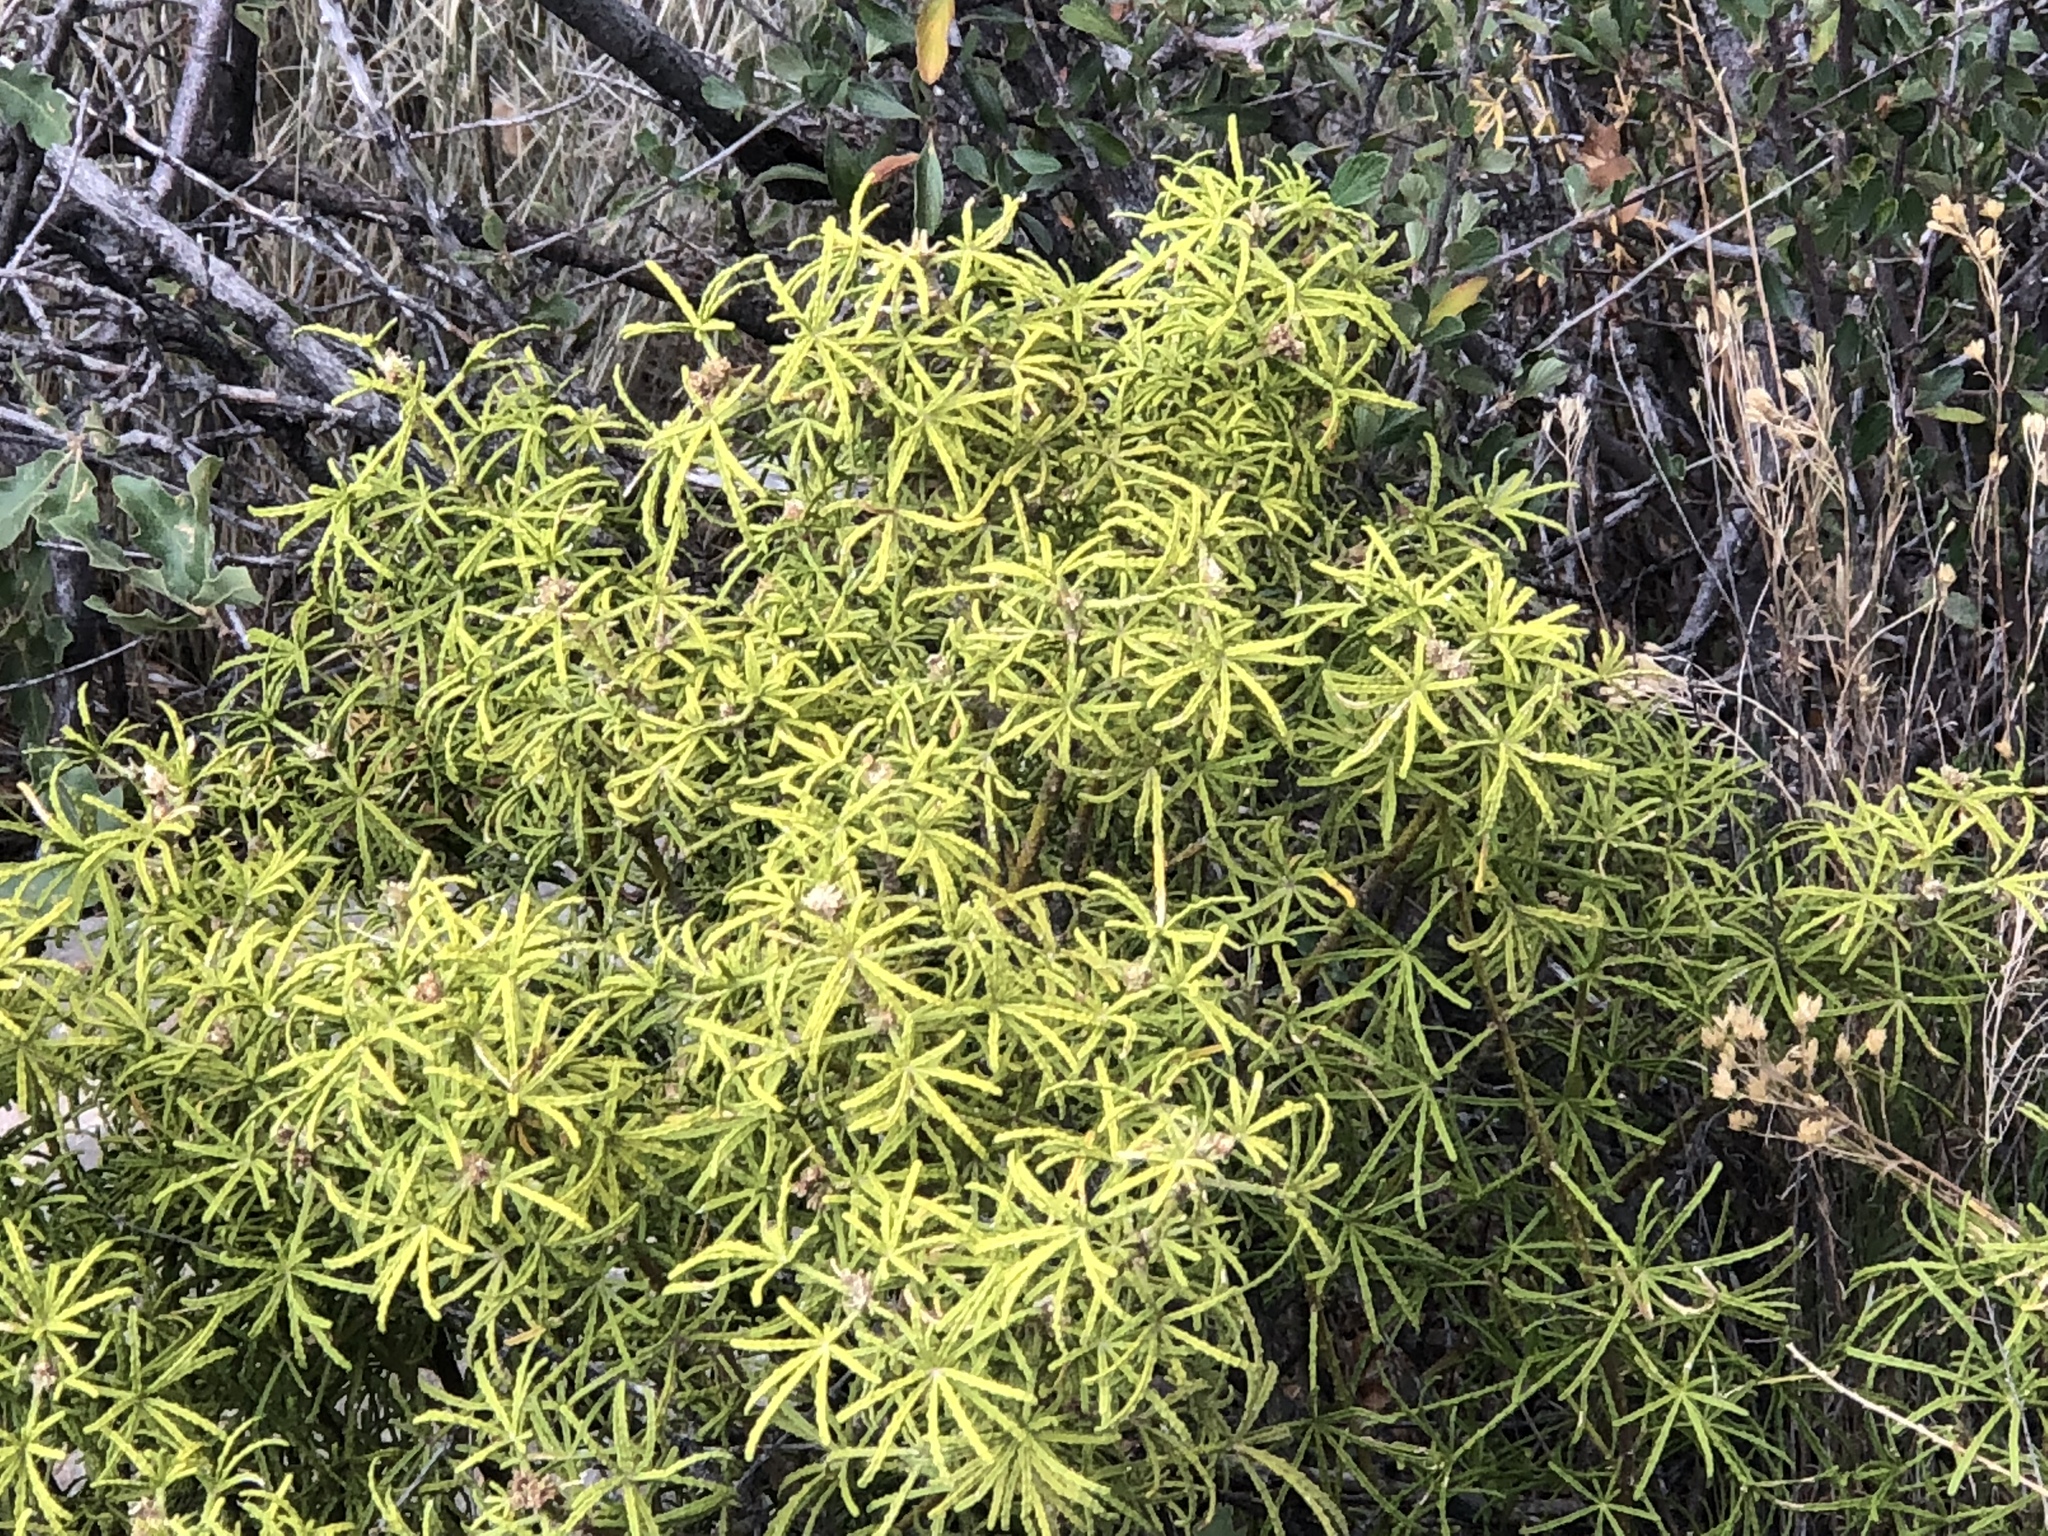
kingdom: Plantae
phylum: Tracheophyta
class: Magnoliopsida
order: Sapindales
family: Rutaceae
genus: Choisya
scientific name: Choisya dumosa
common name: Mexican-orange
